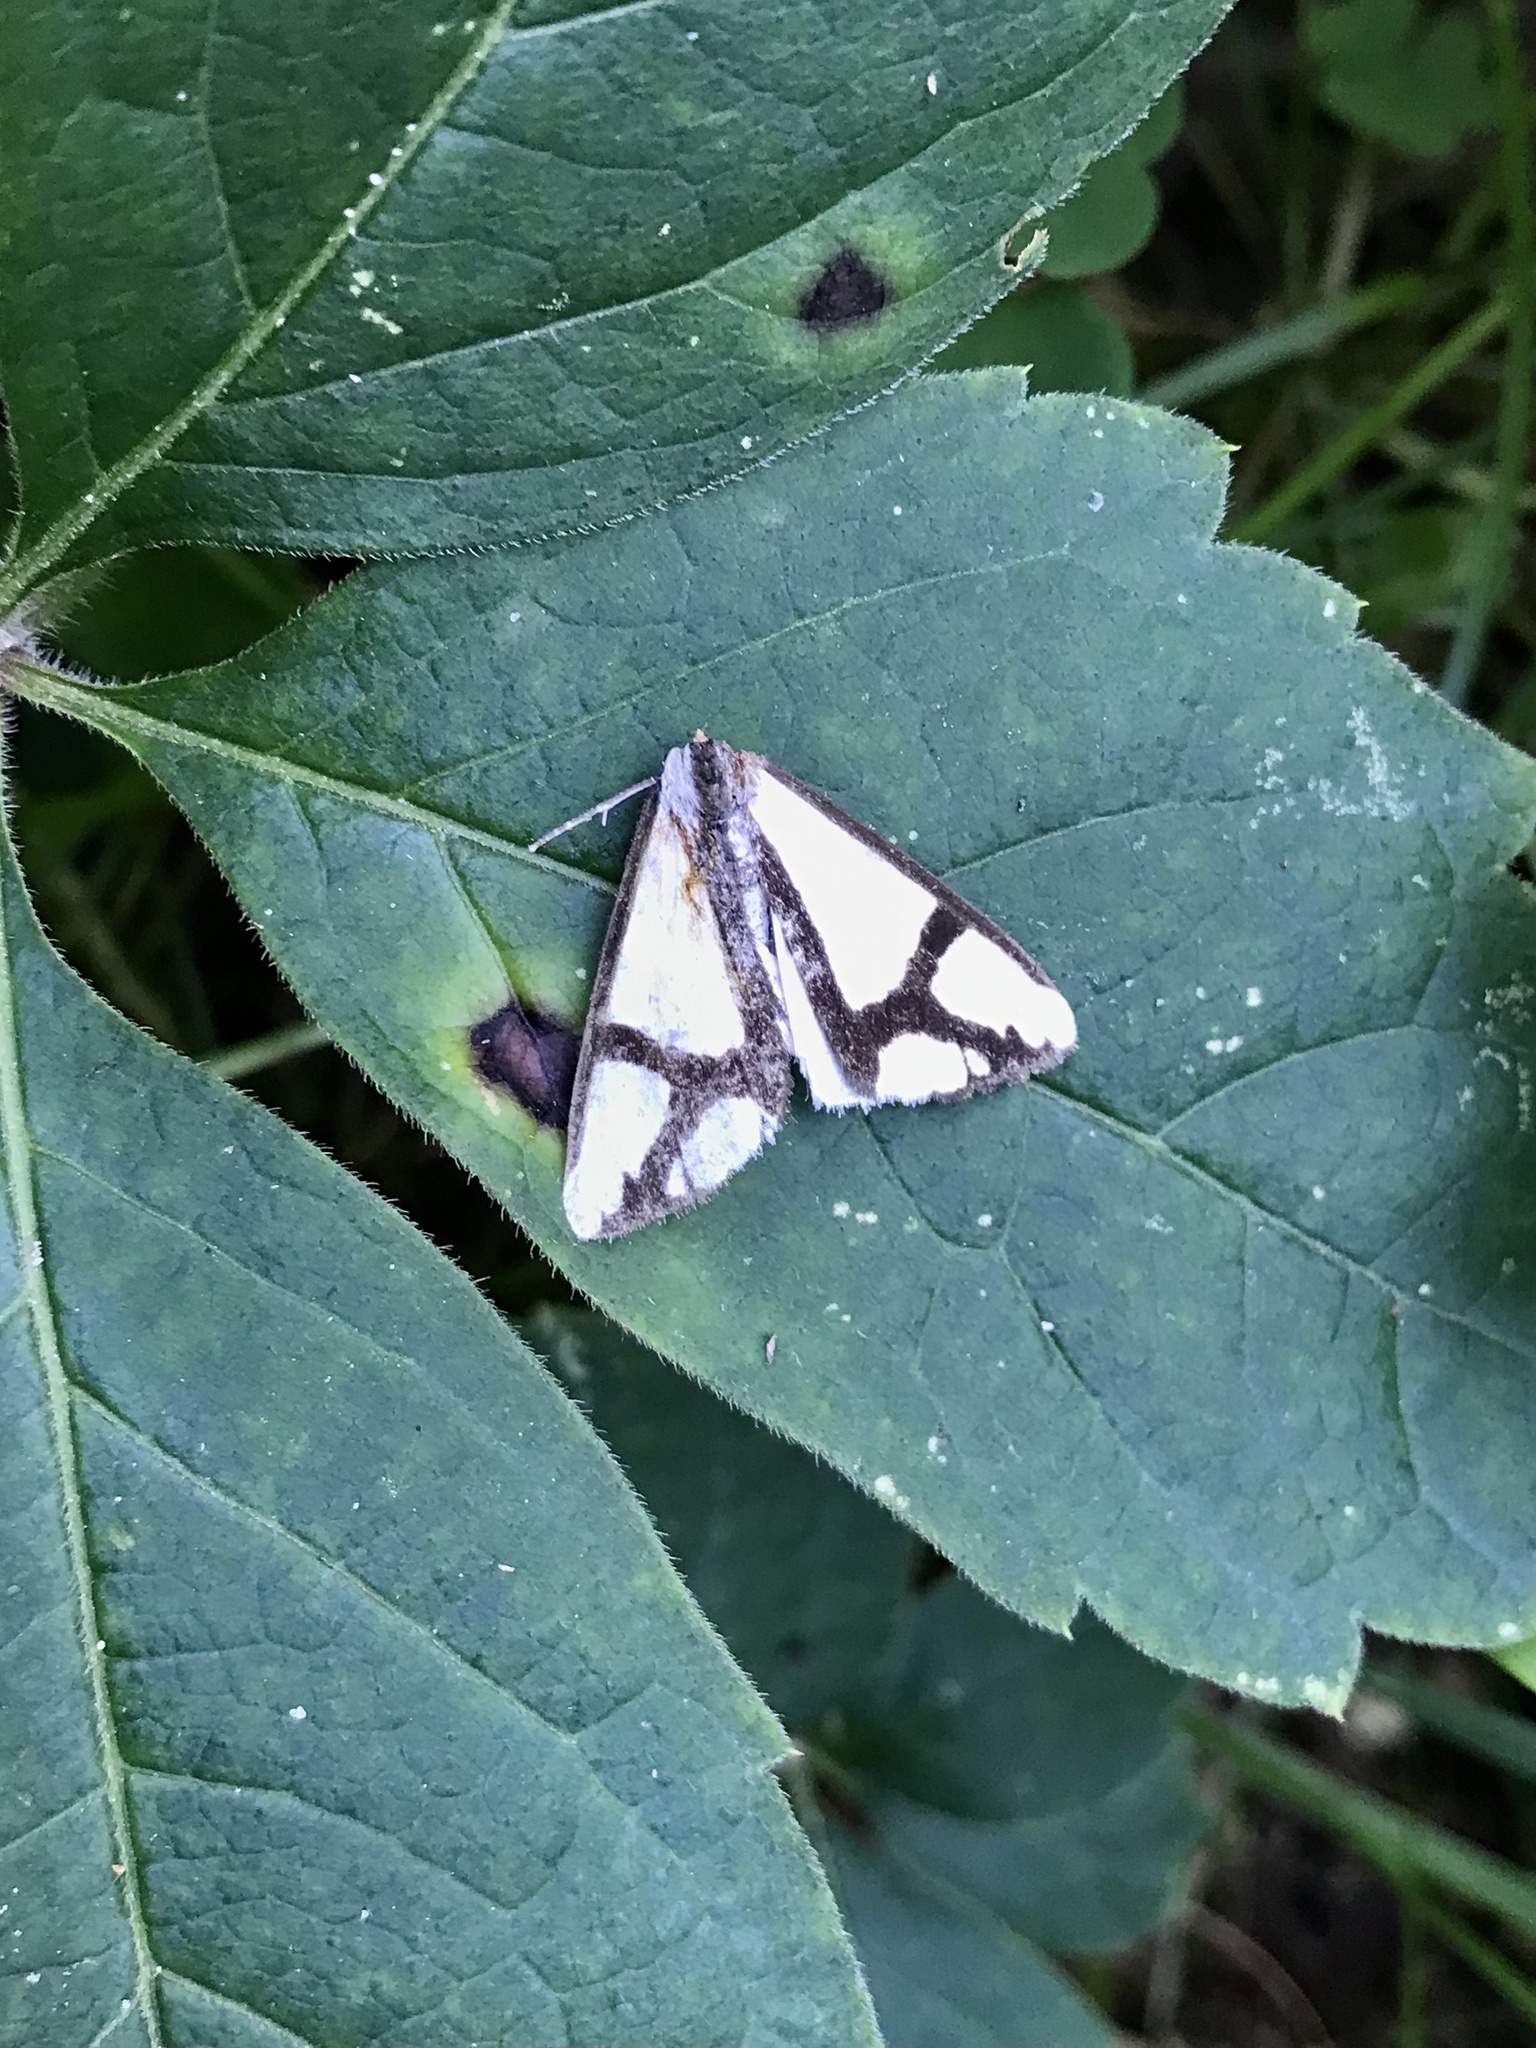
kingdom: Animalia
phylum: Arthropoda
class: Insecta
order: Lepidoptera
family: Erebidae
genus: Haploa
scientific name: Haploa contigua
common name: Neighbor moth
